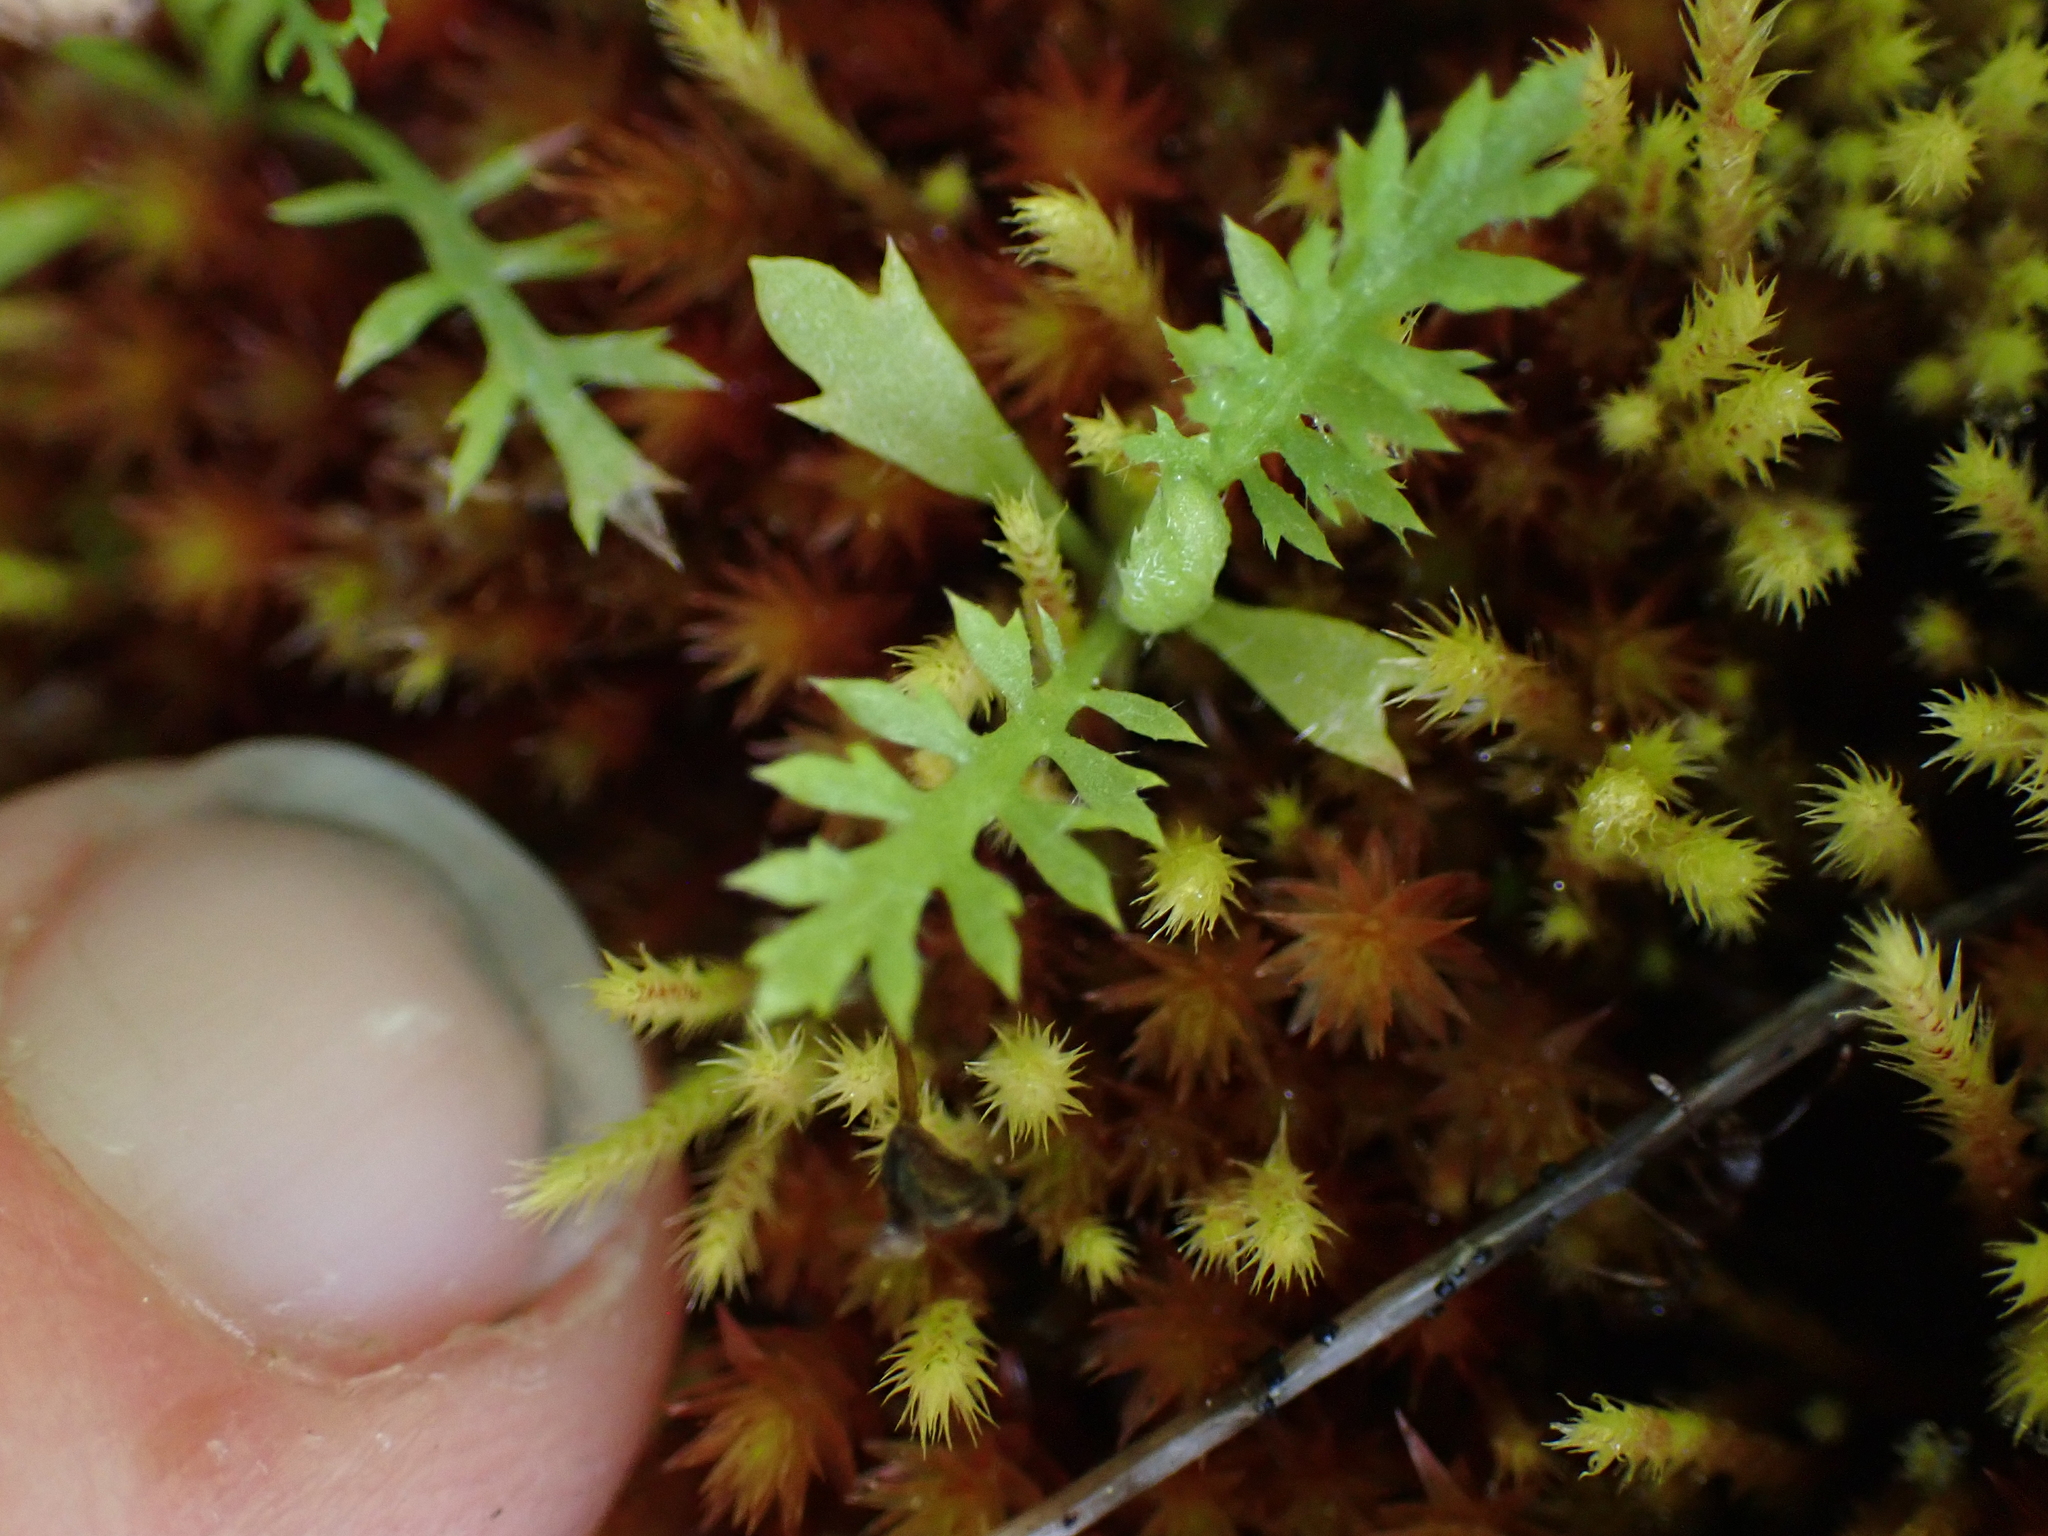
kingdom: Plantae
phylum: Tracheophyta
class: Magnoliopsida
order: Asterales
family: Asteraceae
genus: Soliva
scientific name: Soliva sessilis
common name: Field burrweed
